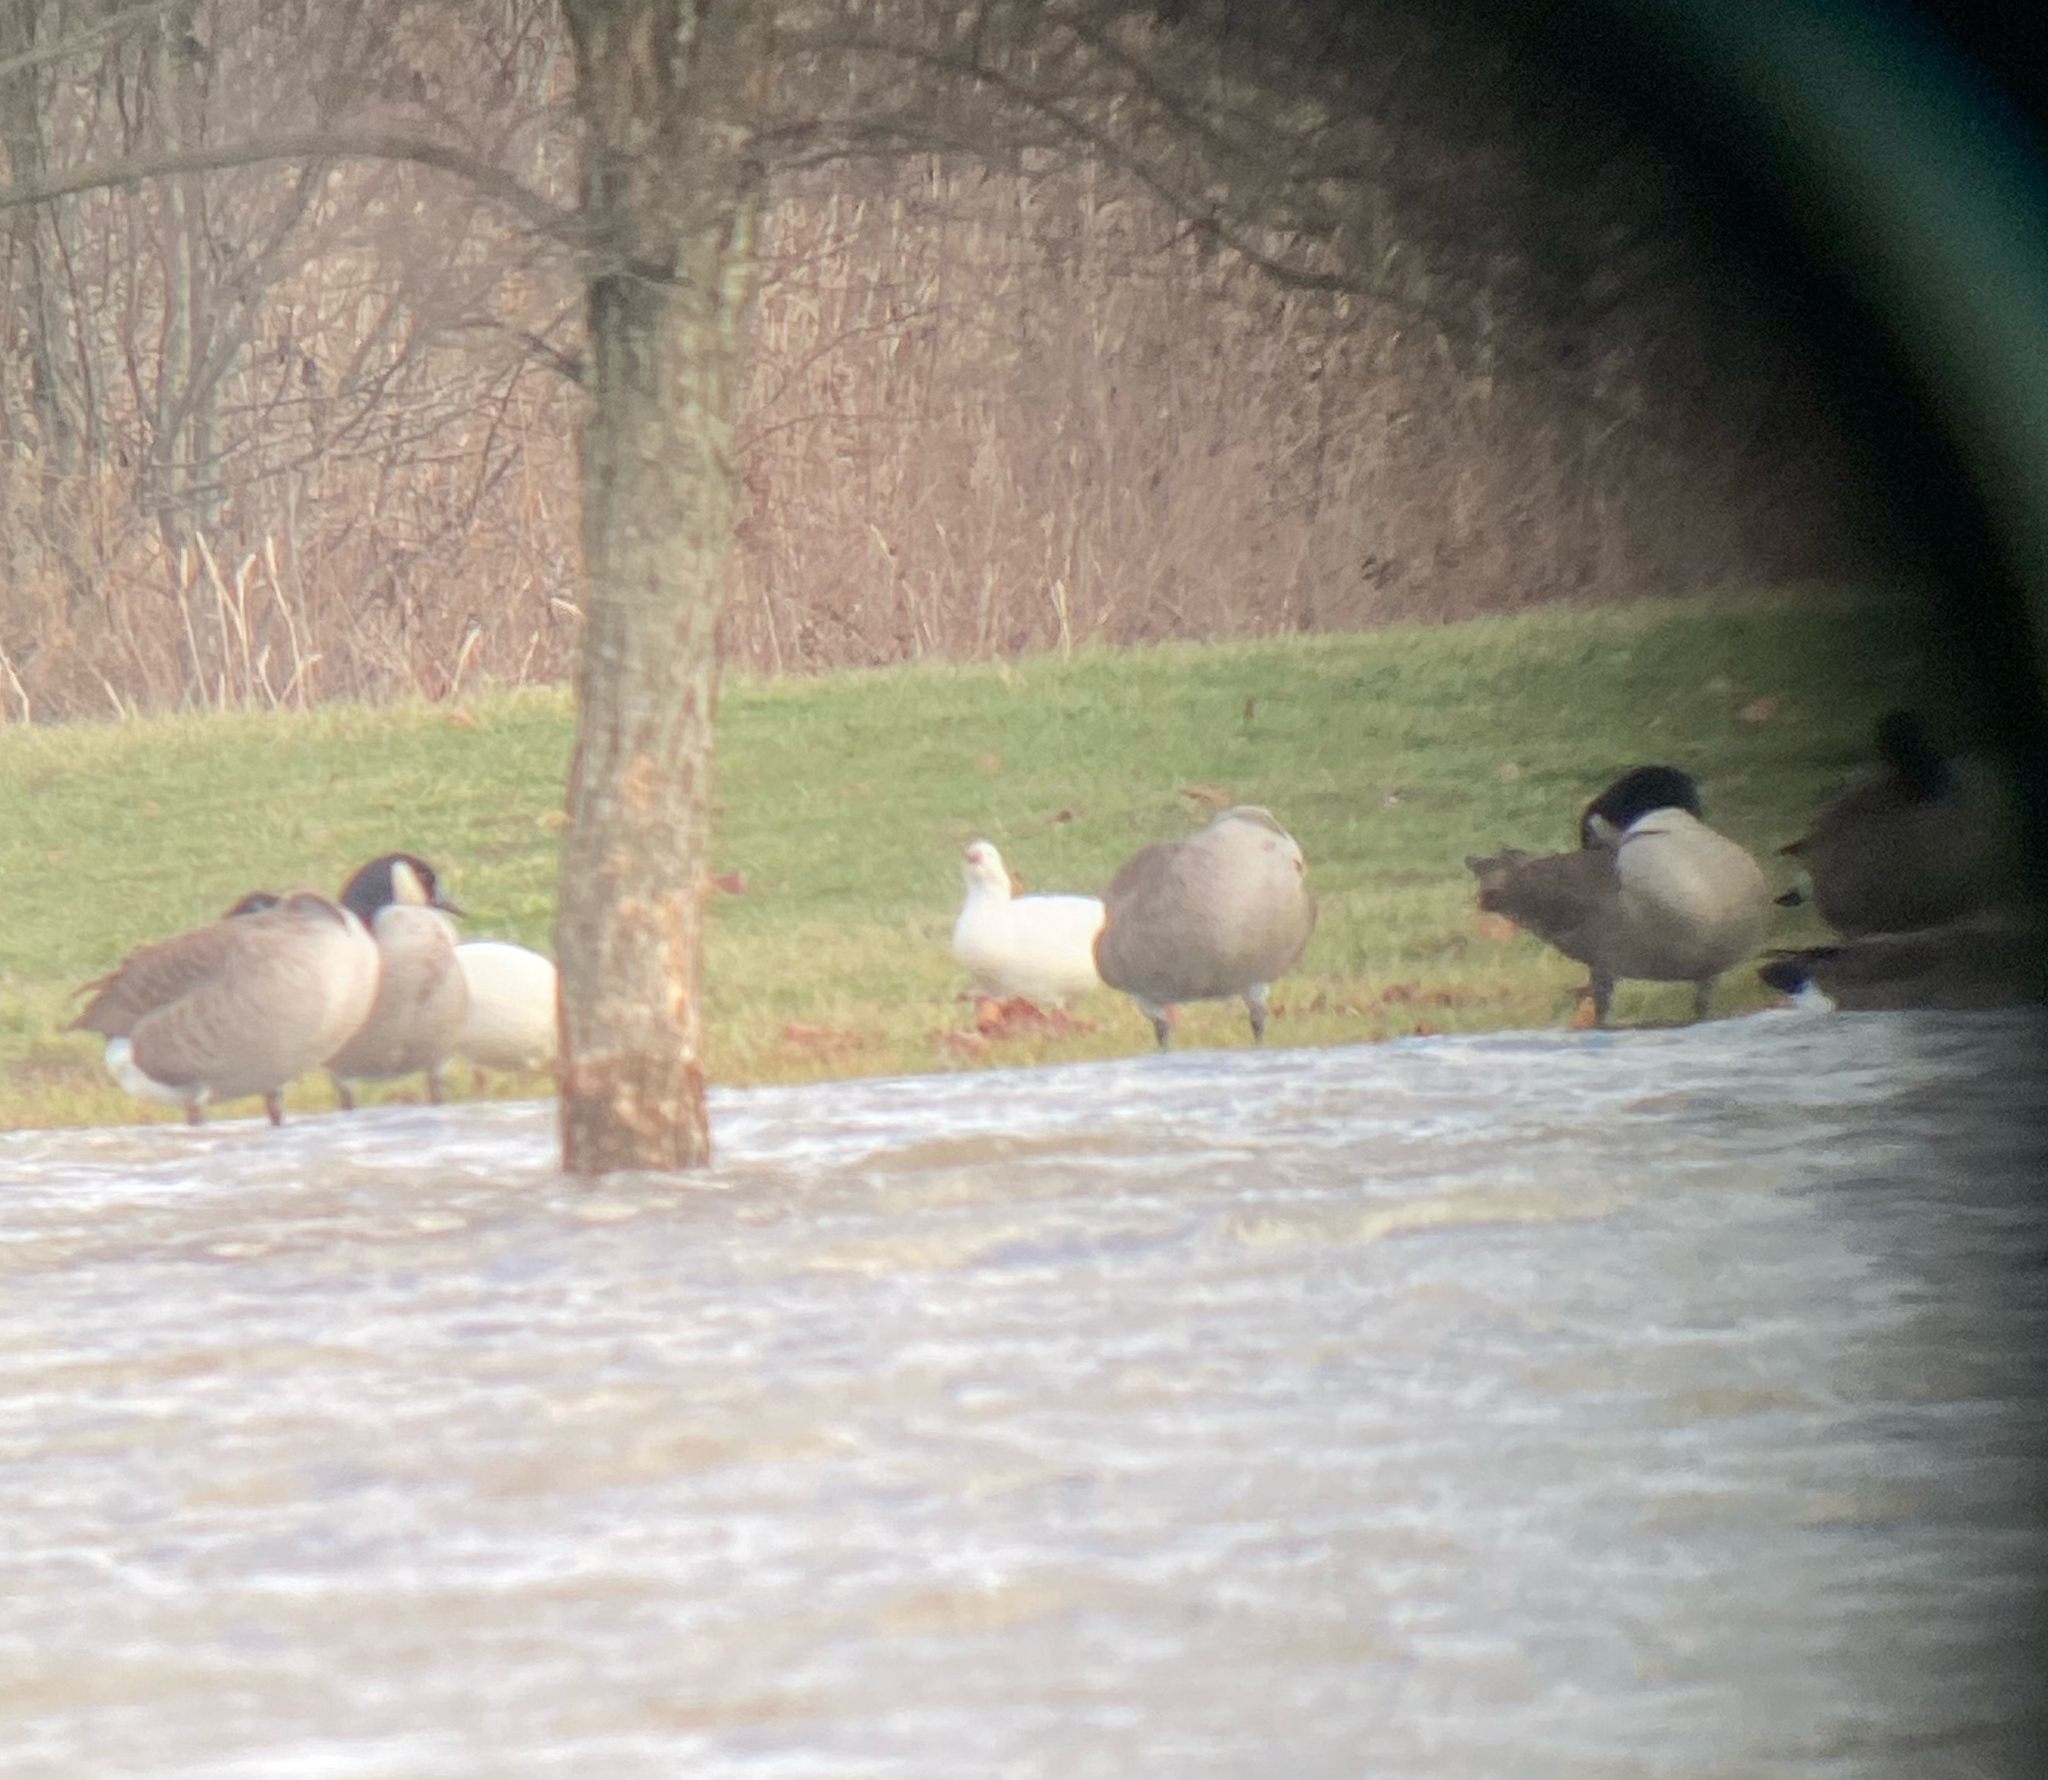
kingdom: Animalia
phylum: Chordata
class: Aves
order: Anseriformes
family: Anatidae
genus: Anser
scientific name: Anser rossii
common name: Ross's goose
